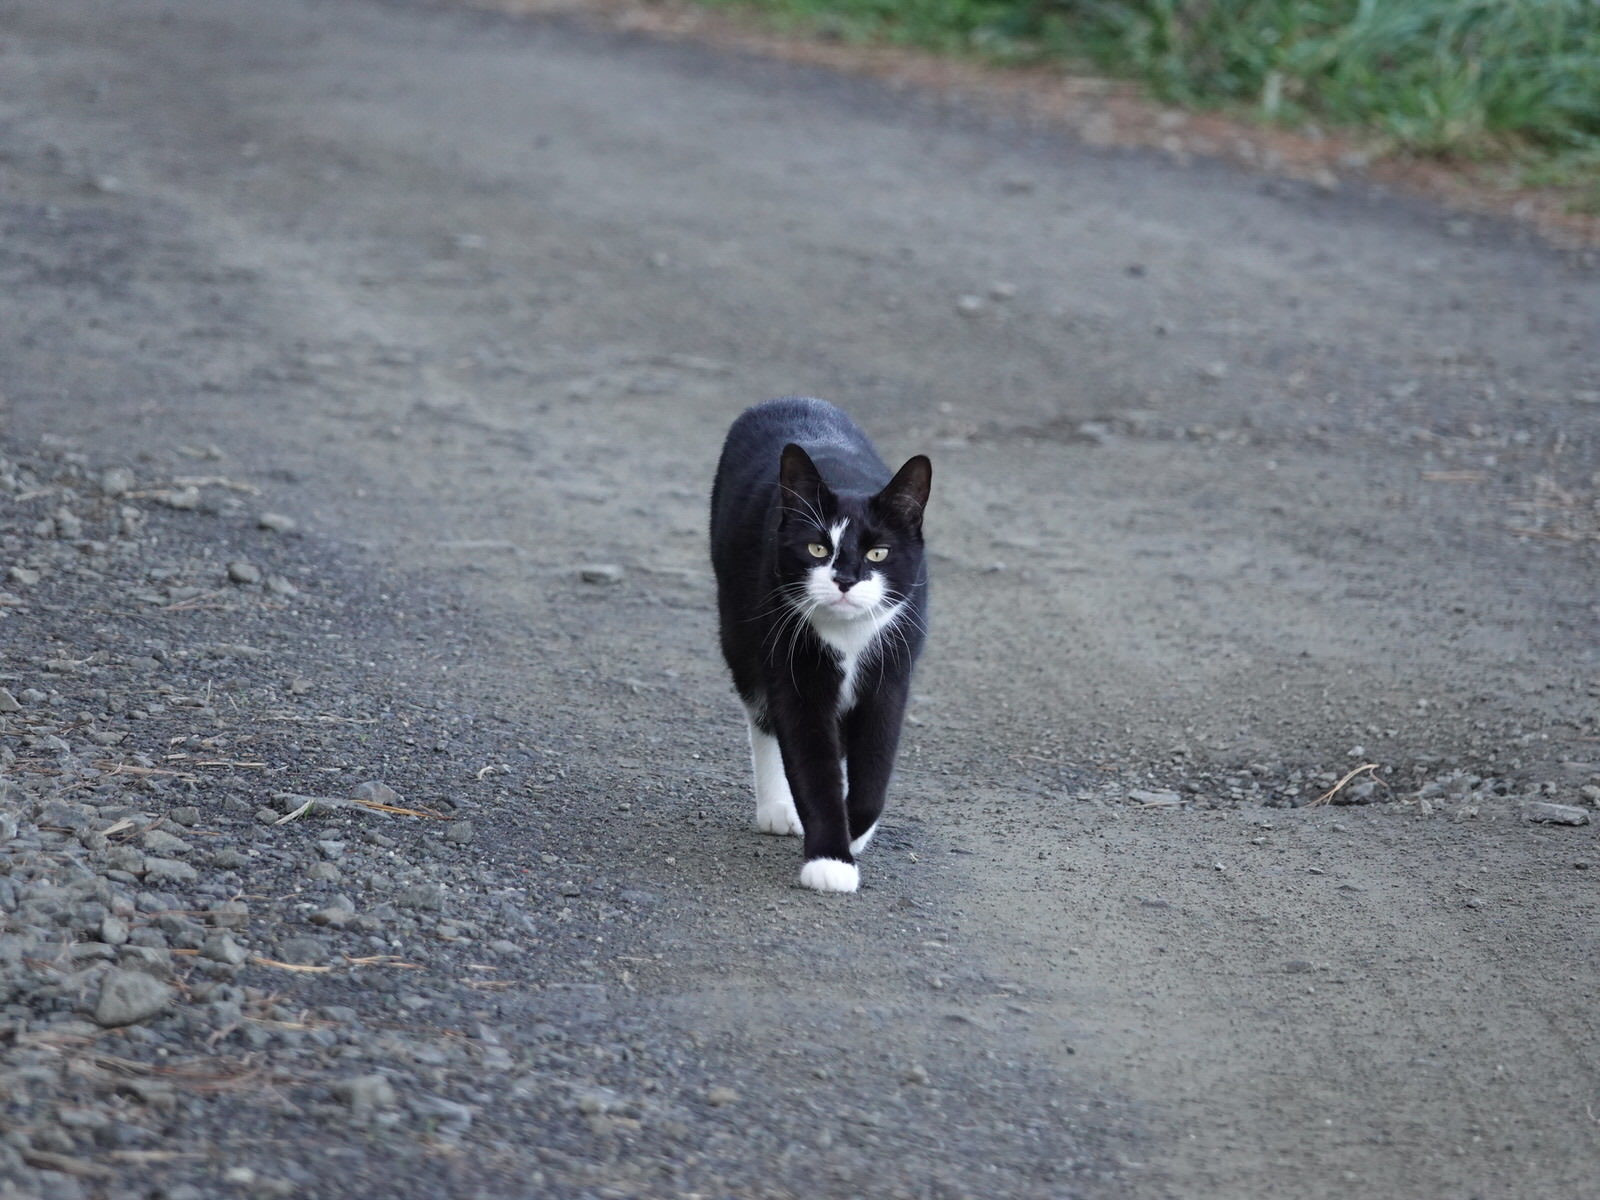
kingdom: Animalia
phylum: Chordata
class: Mammalia
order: Carnivora
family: Felidae
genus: Felis
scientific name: Felis catus
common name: Domestic cat
